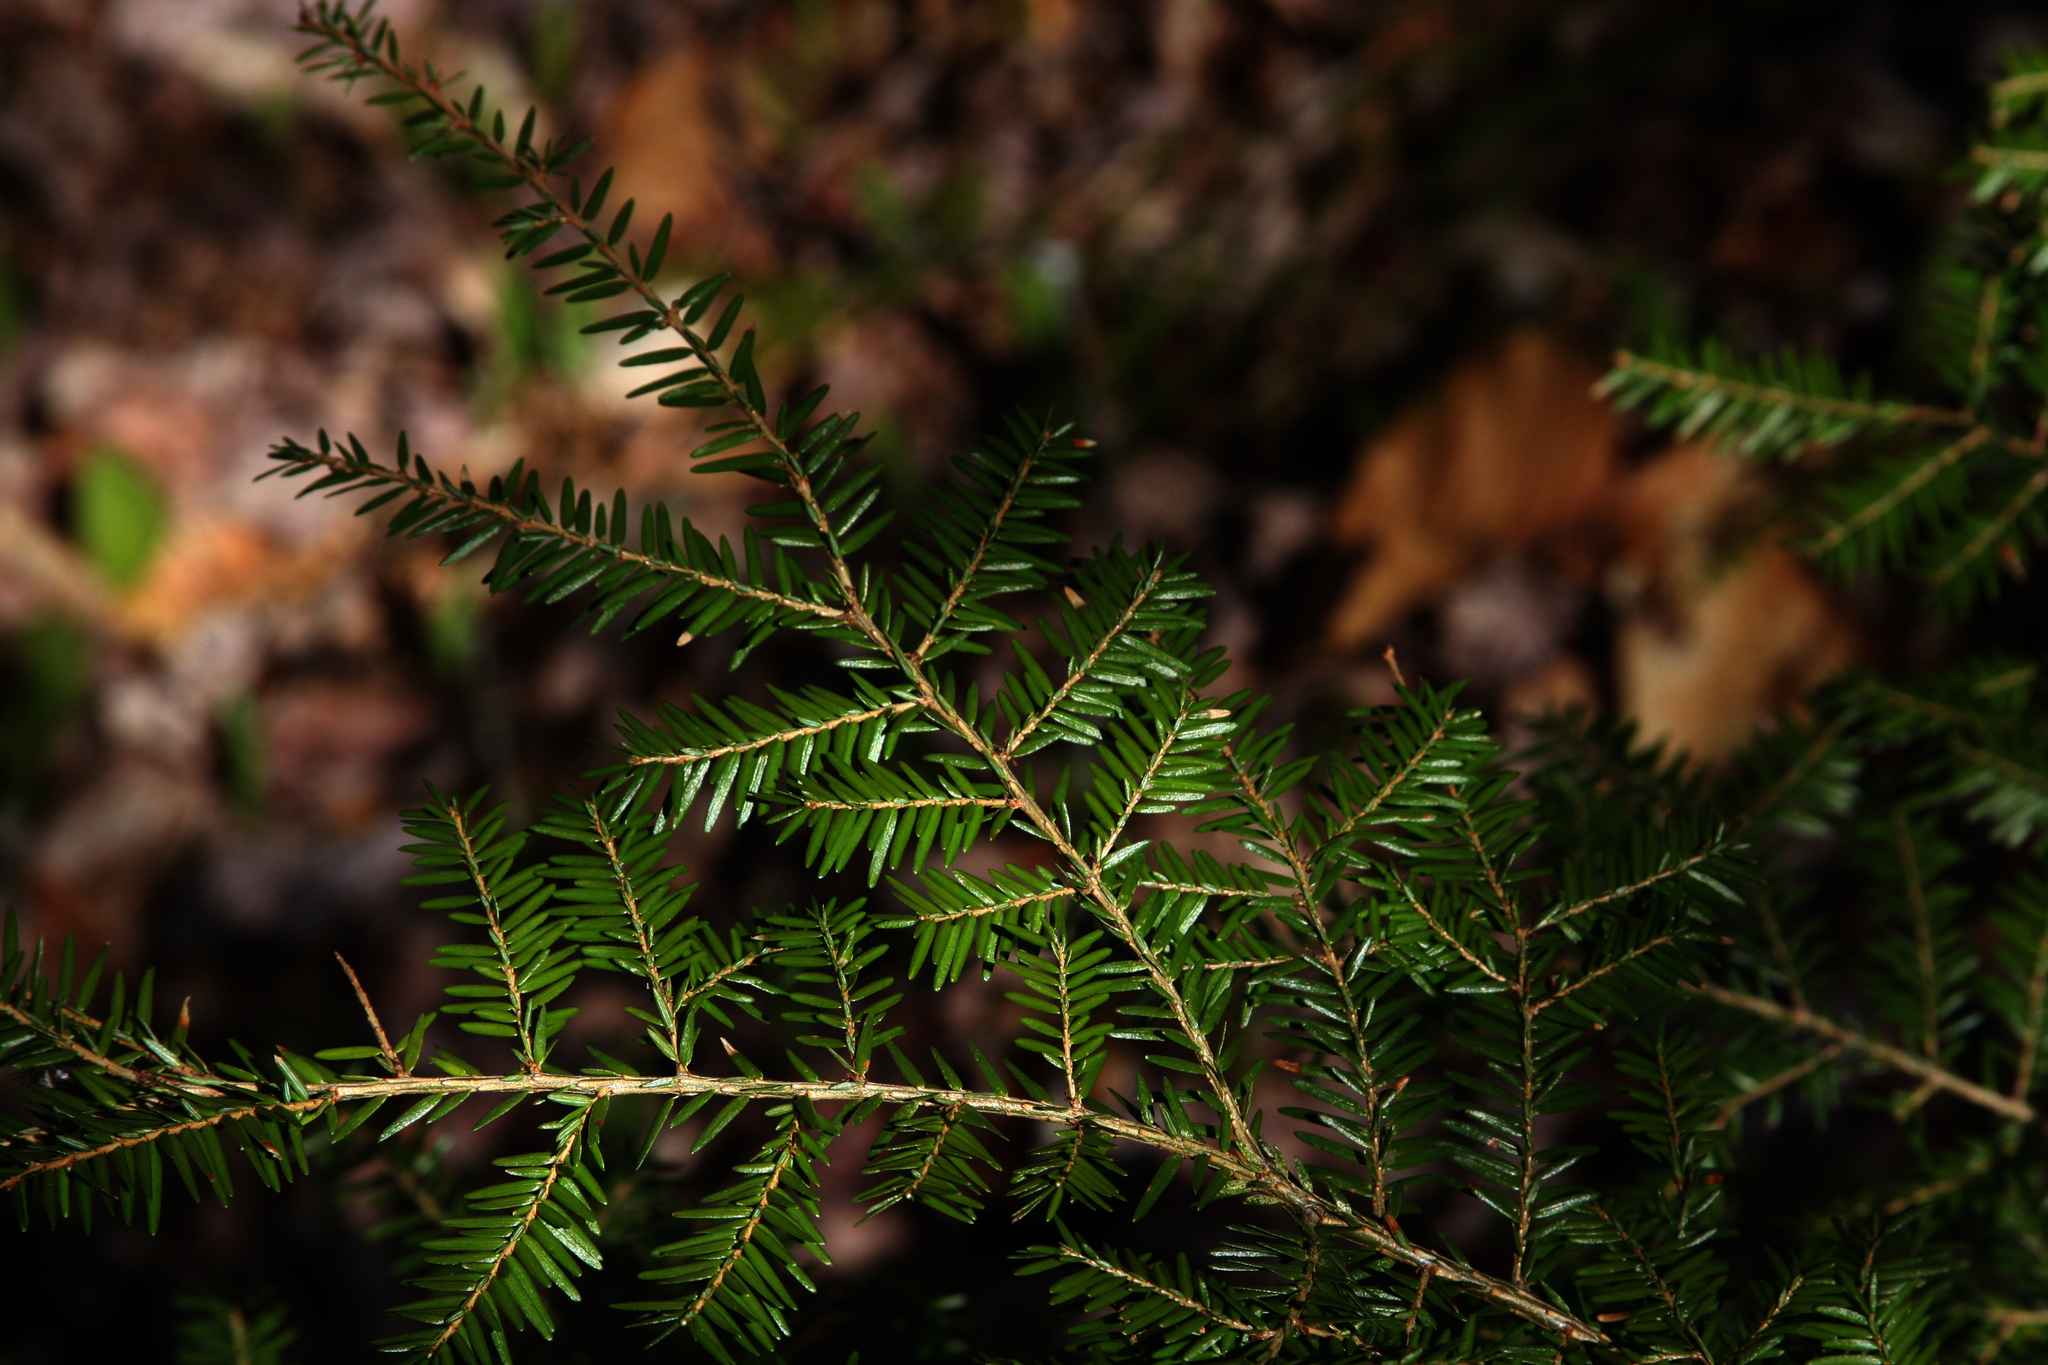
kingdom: Plantae
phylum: Tracheophyta
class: Pinopsida
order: Pinales
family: Pinaceae
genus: Tsuga
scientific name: Tsuga canadensis
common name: Eastern hemlock
